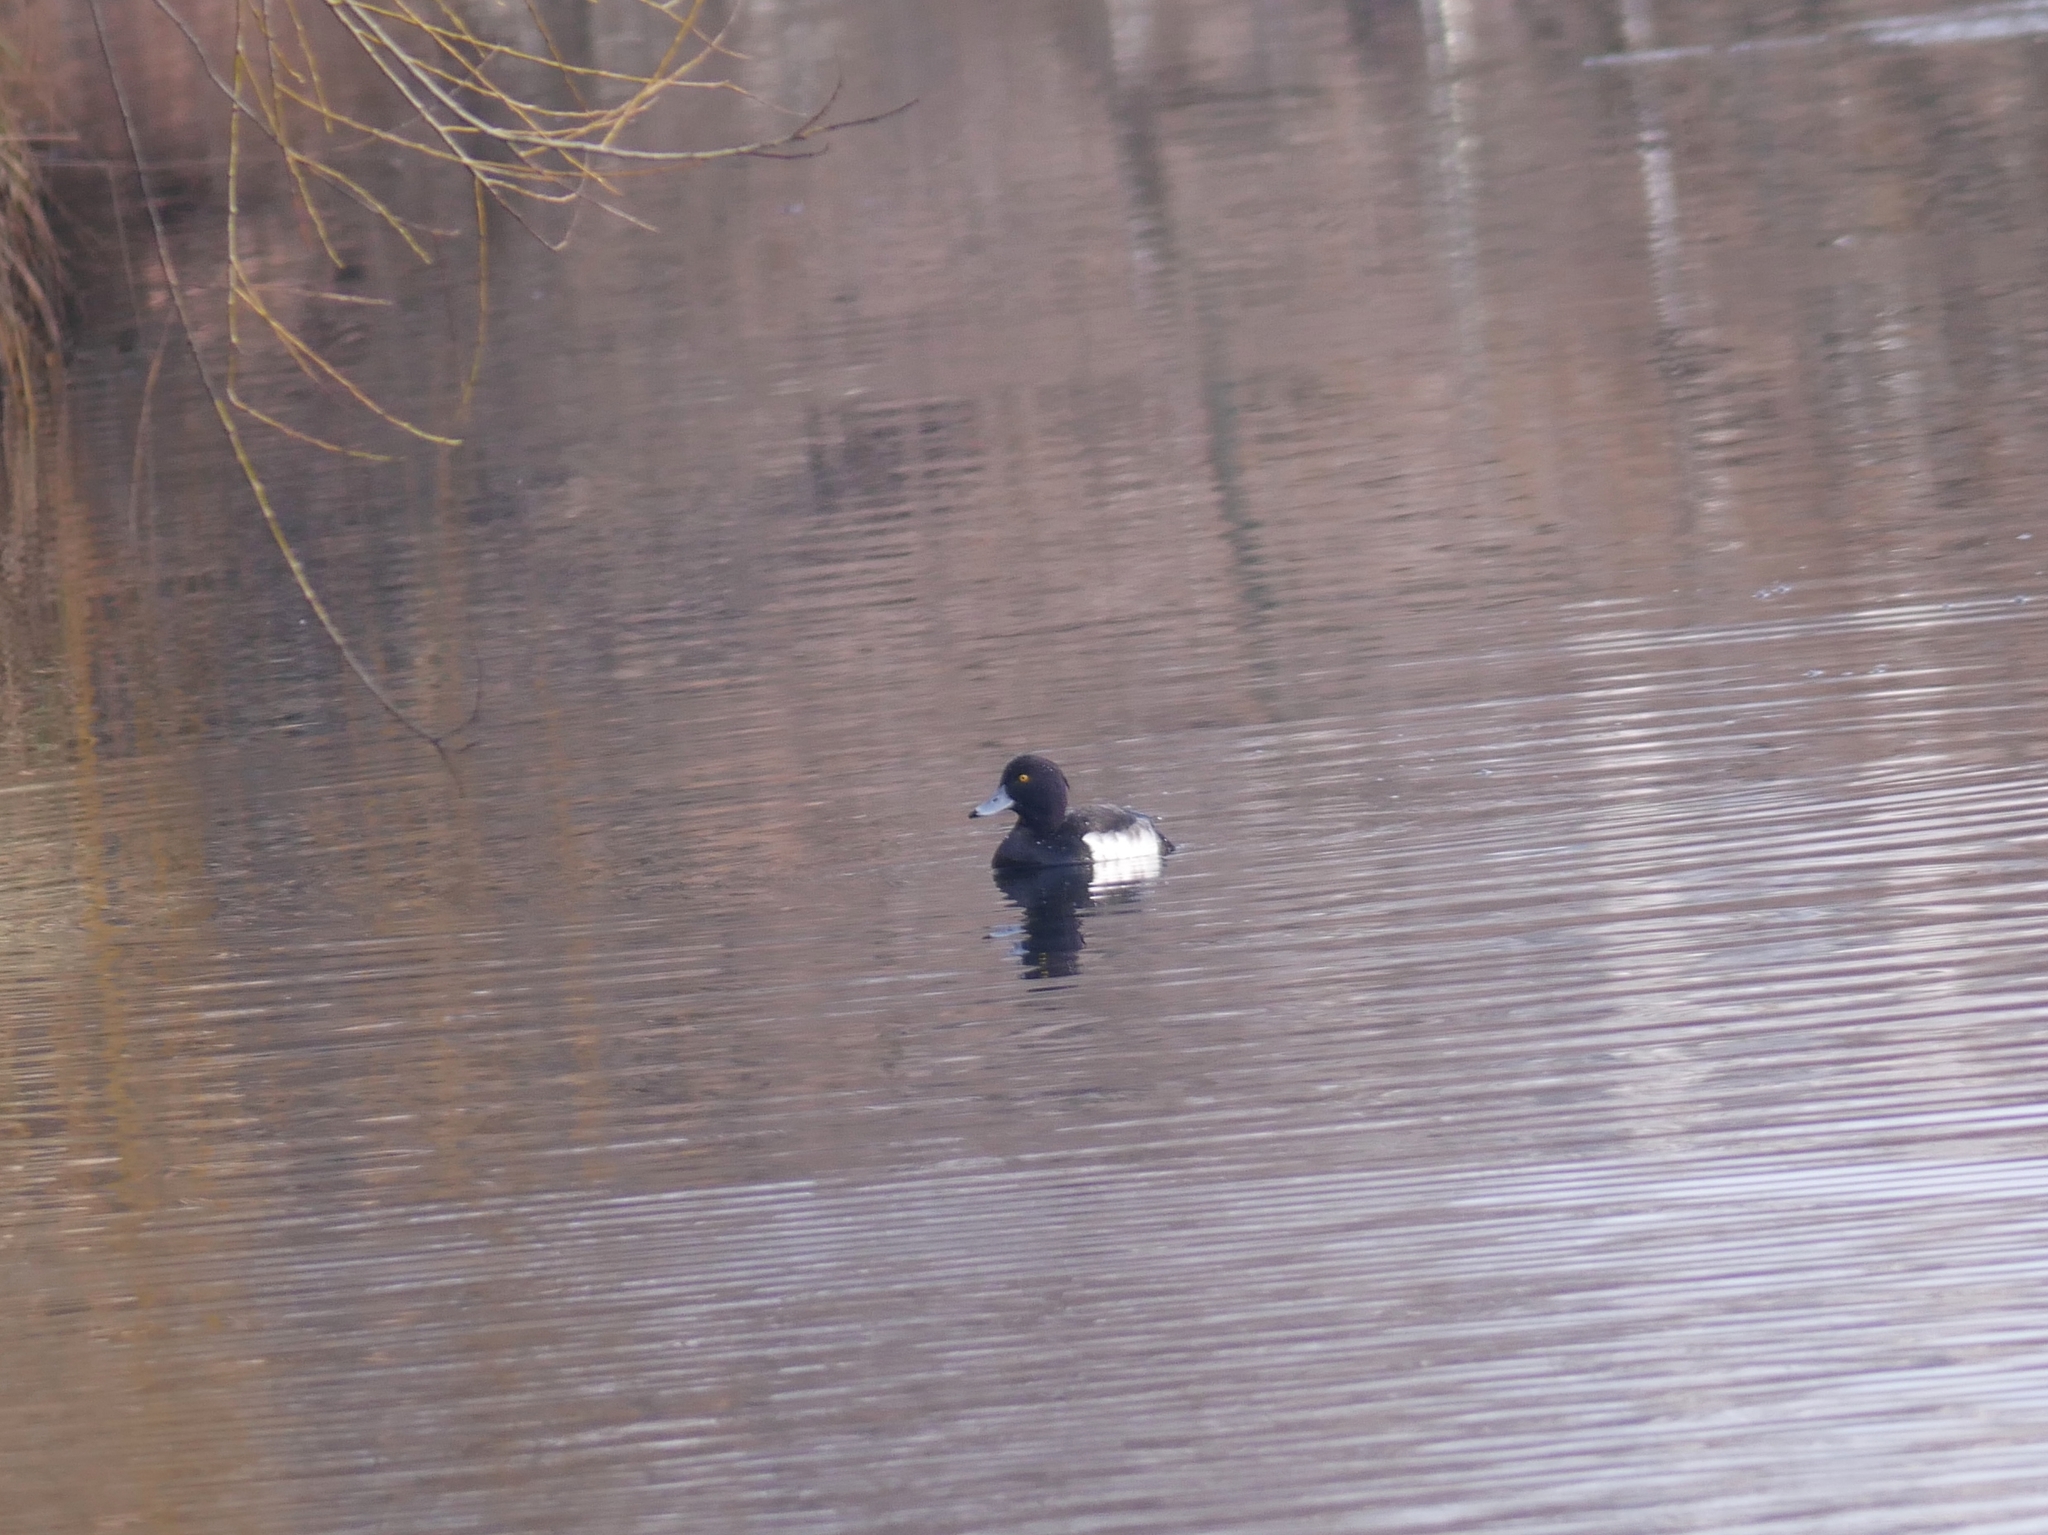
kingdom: Animalia
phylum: Chordata
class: Aves
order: Anseriformes
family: Anatidae
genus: Aythya
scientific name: Aythya fuligula
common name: Tufted duck
